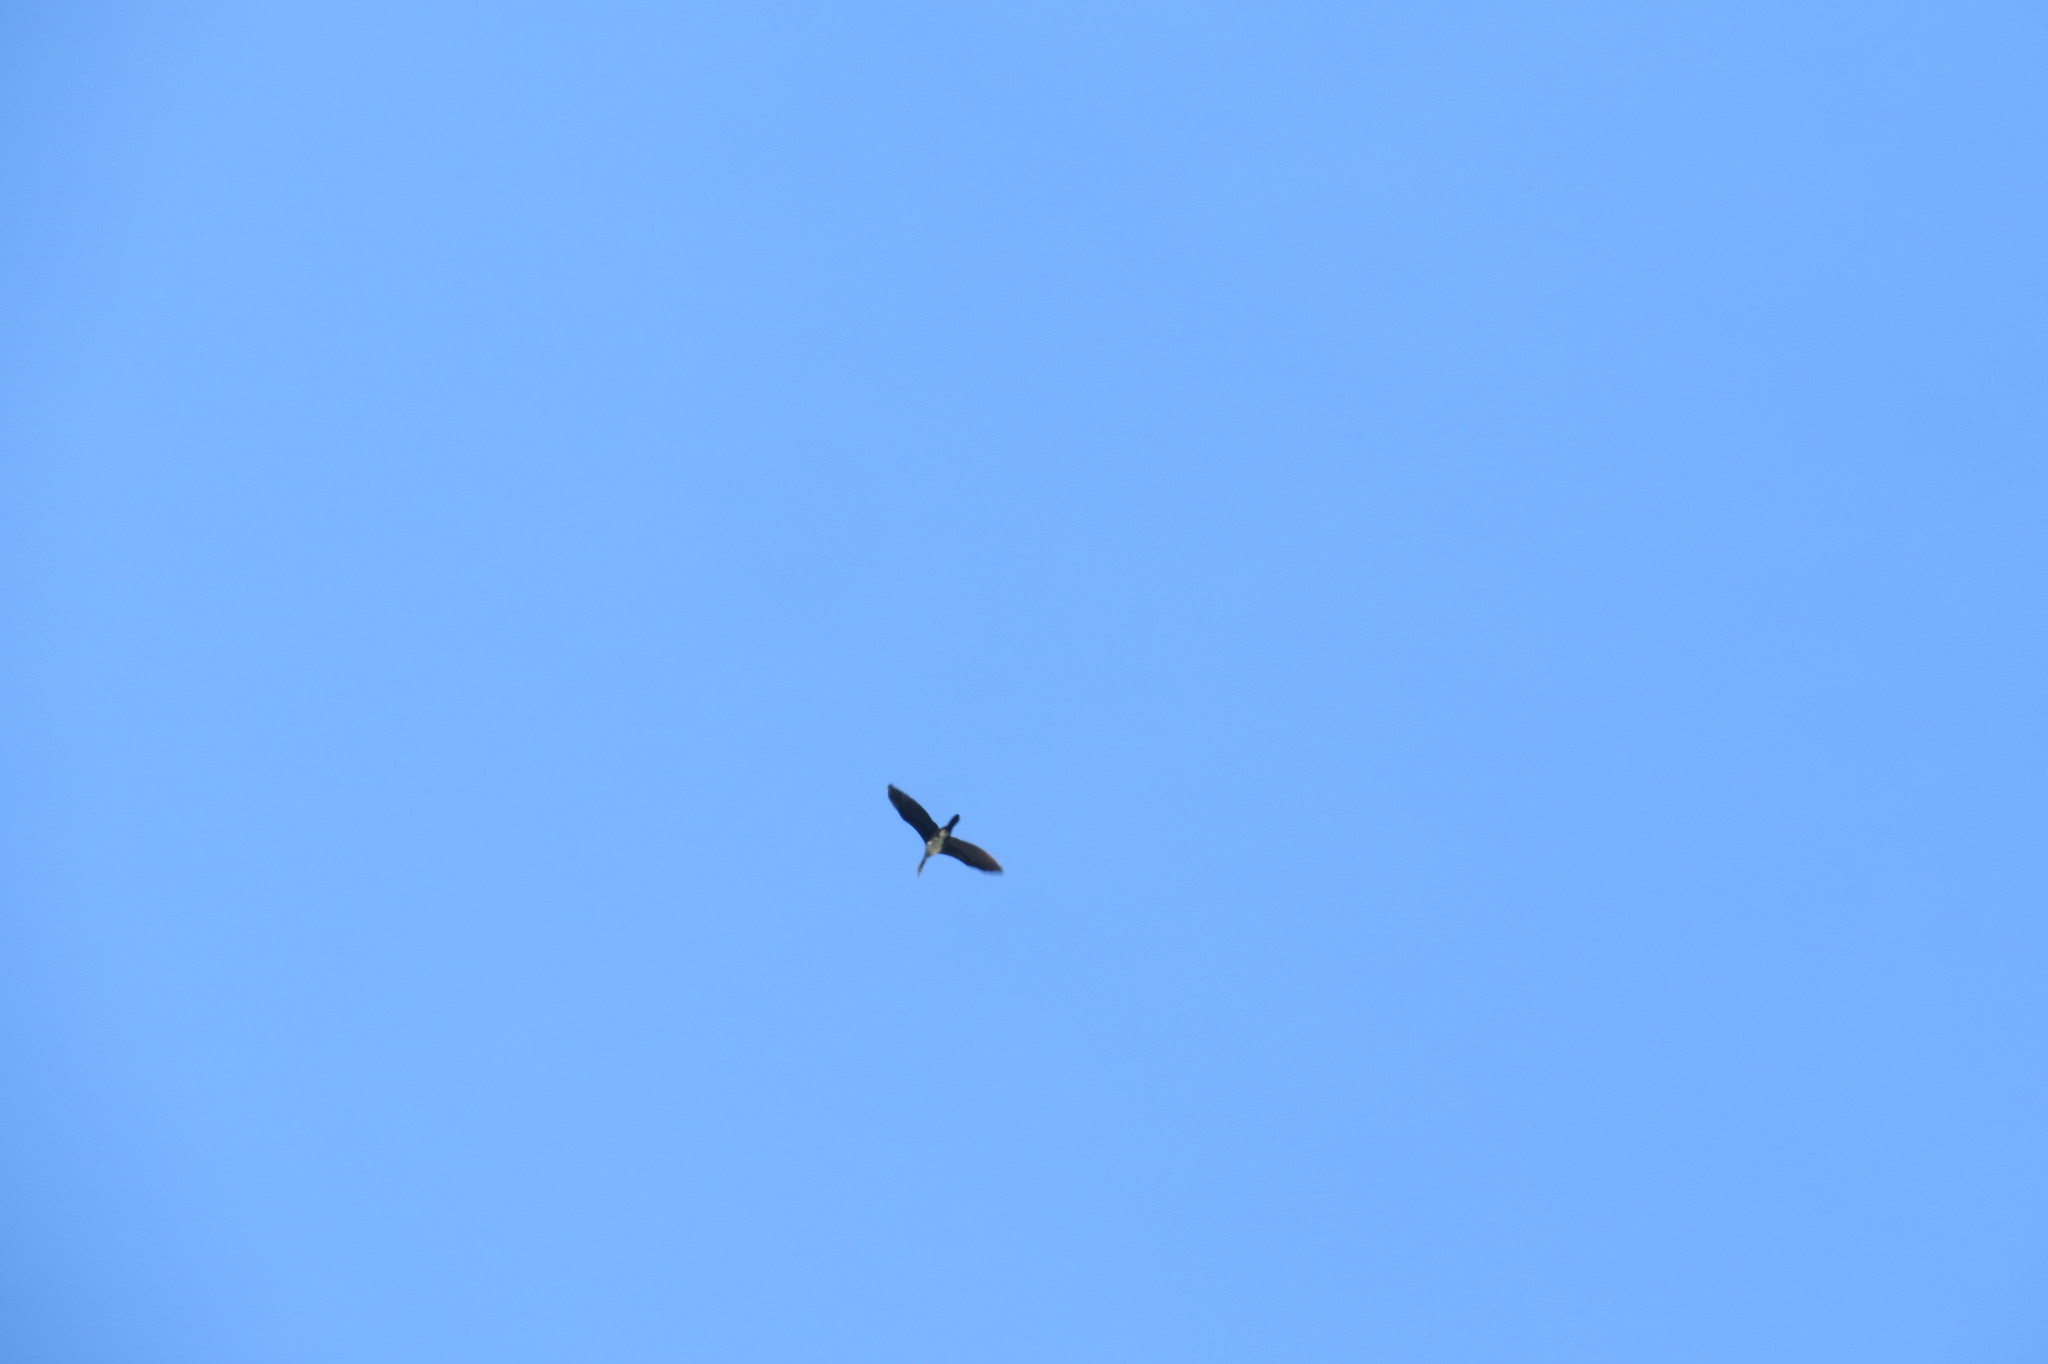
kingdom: Animalia
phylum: Chordata
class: Aves
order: Suliformes
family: Phalacrocoracidae
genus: Phalacrocorax
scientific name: Phalacrocorax carbo
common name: Great cormorant
